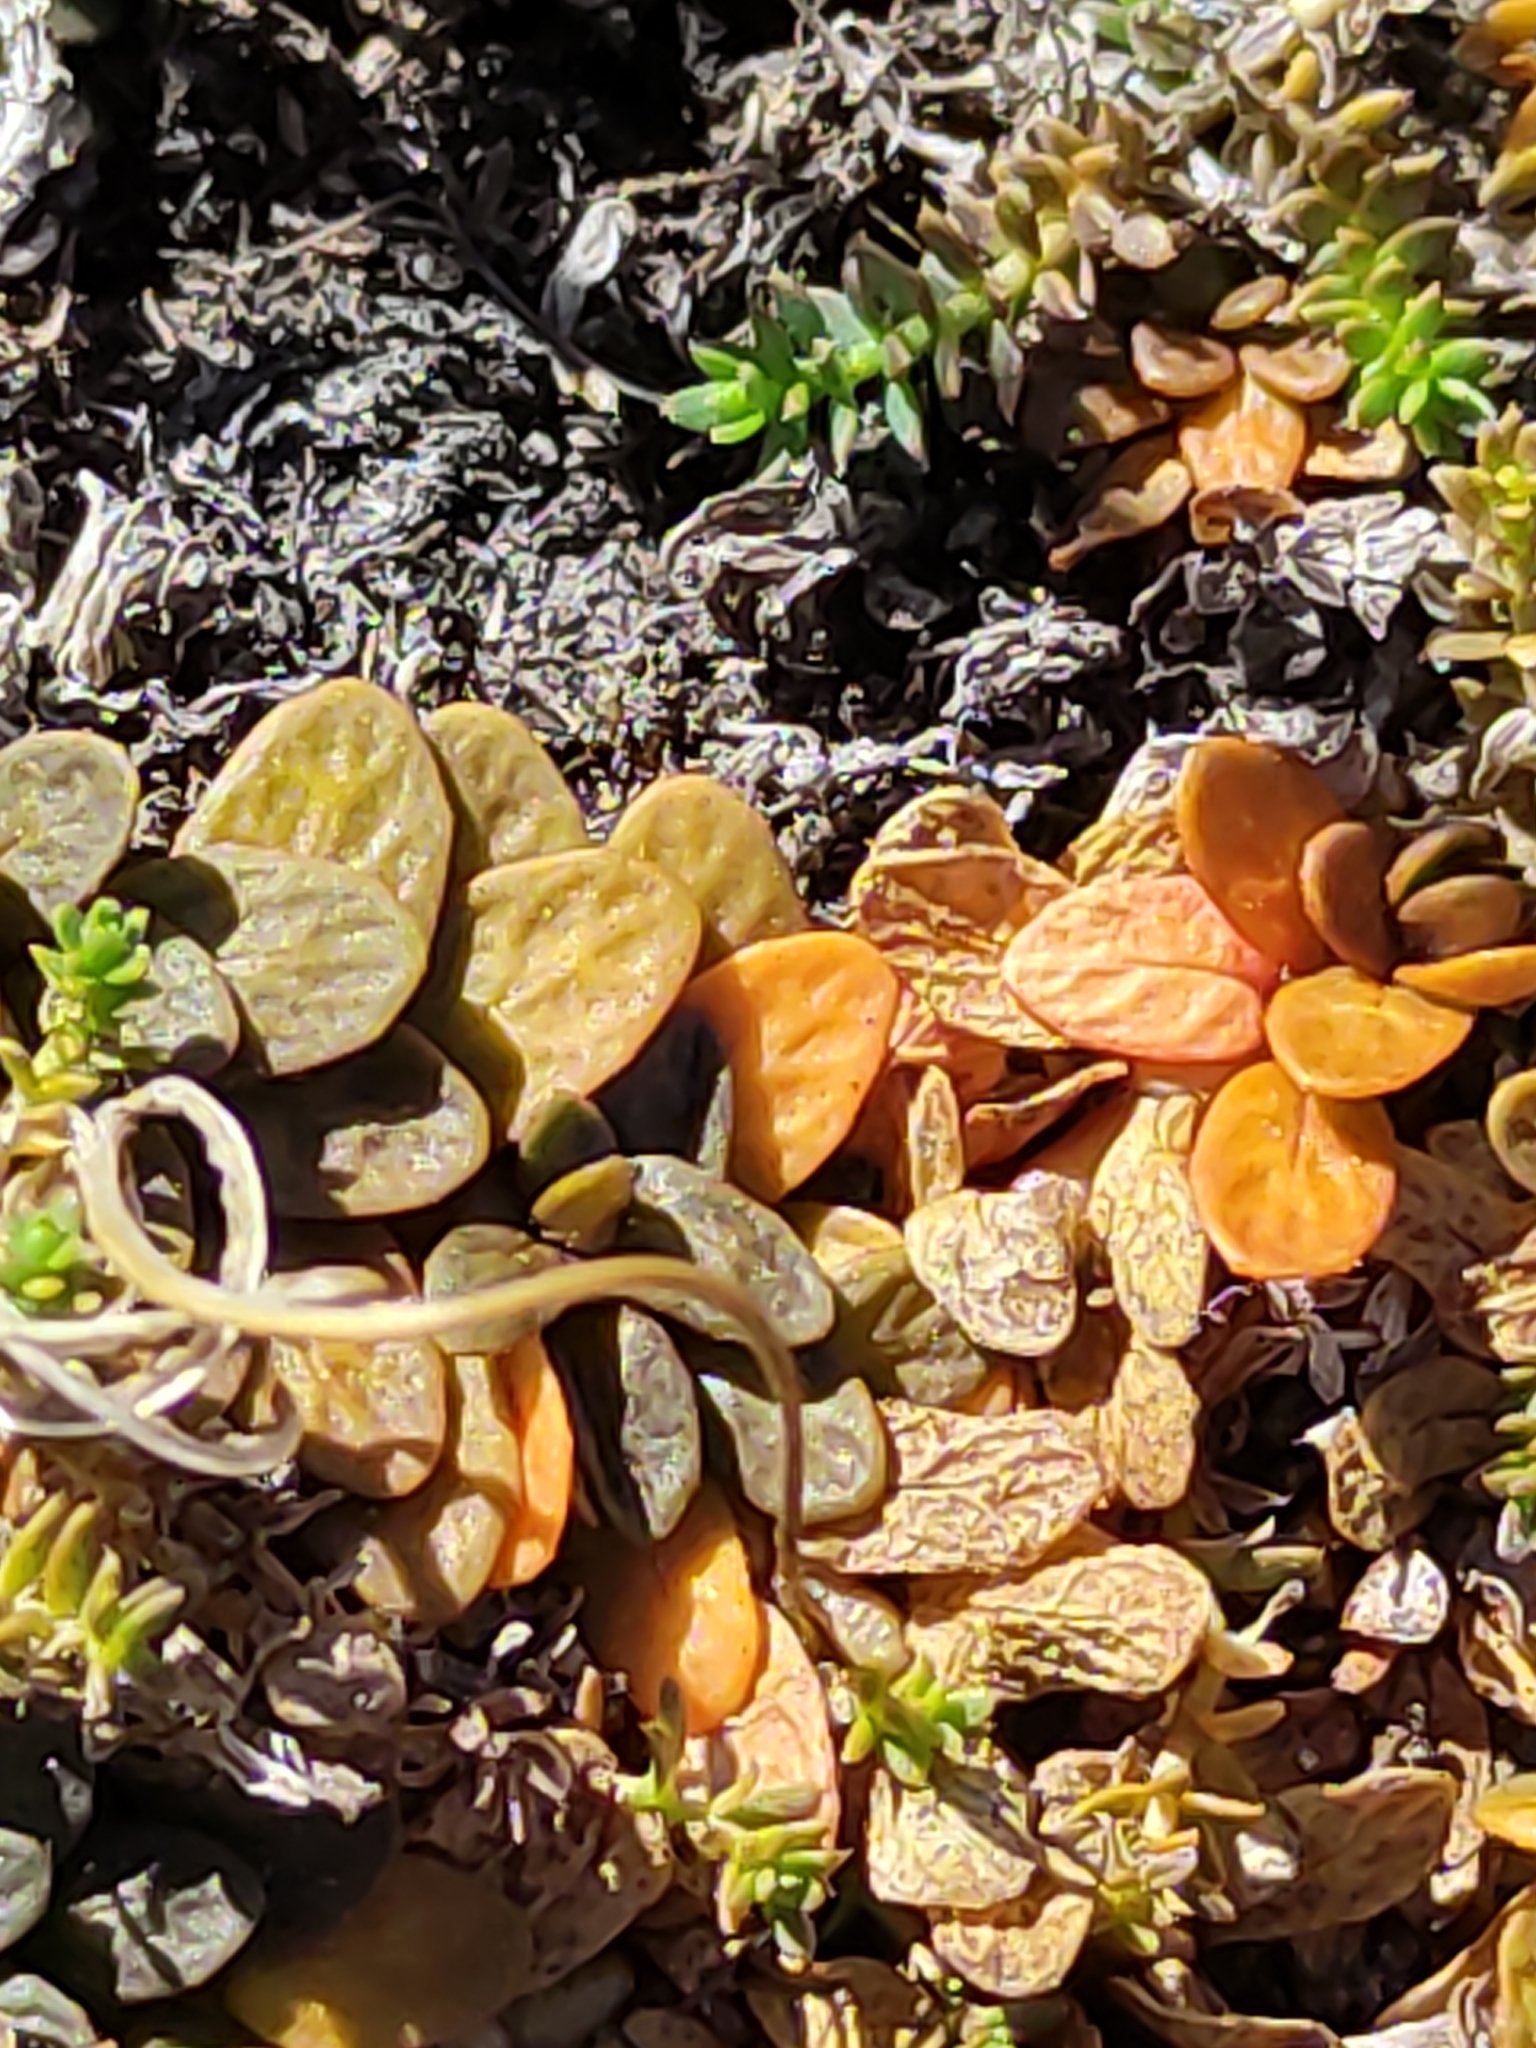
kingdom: Plantae
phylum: Tracheophyta
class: Magnoliopsida
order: Myrtales
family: Onagraceae
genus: Epilobium
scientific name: Epilobium angustum
